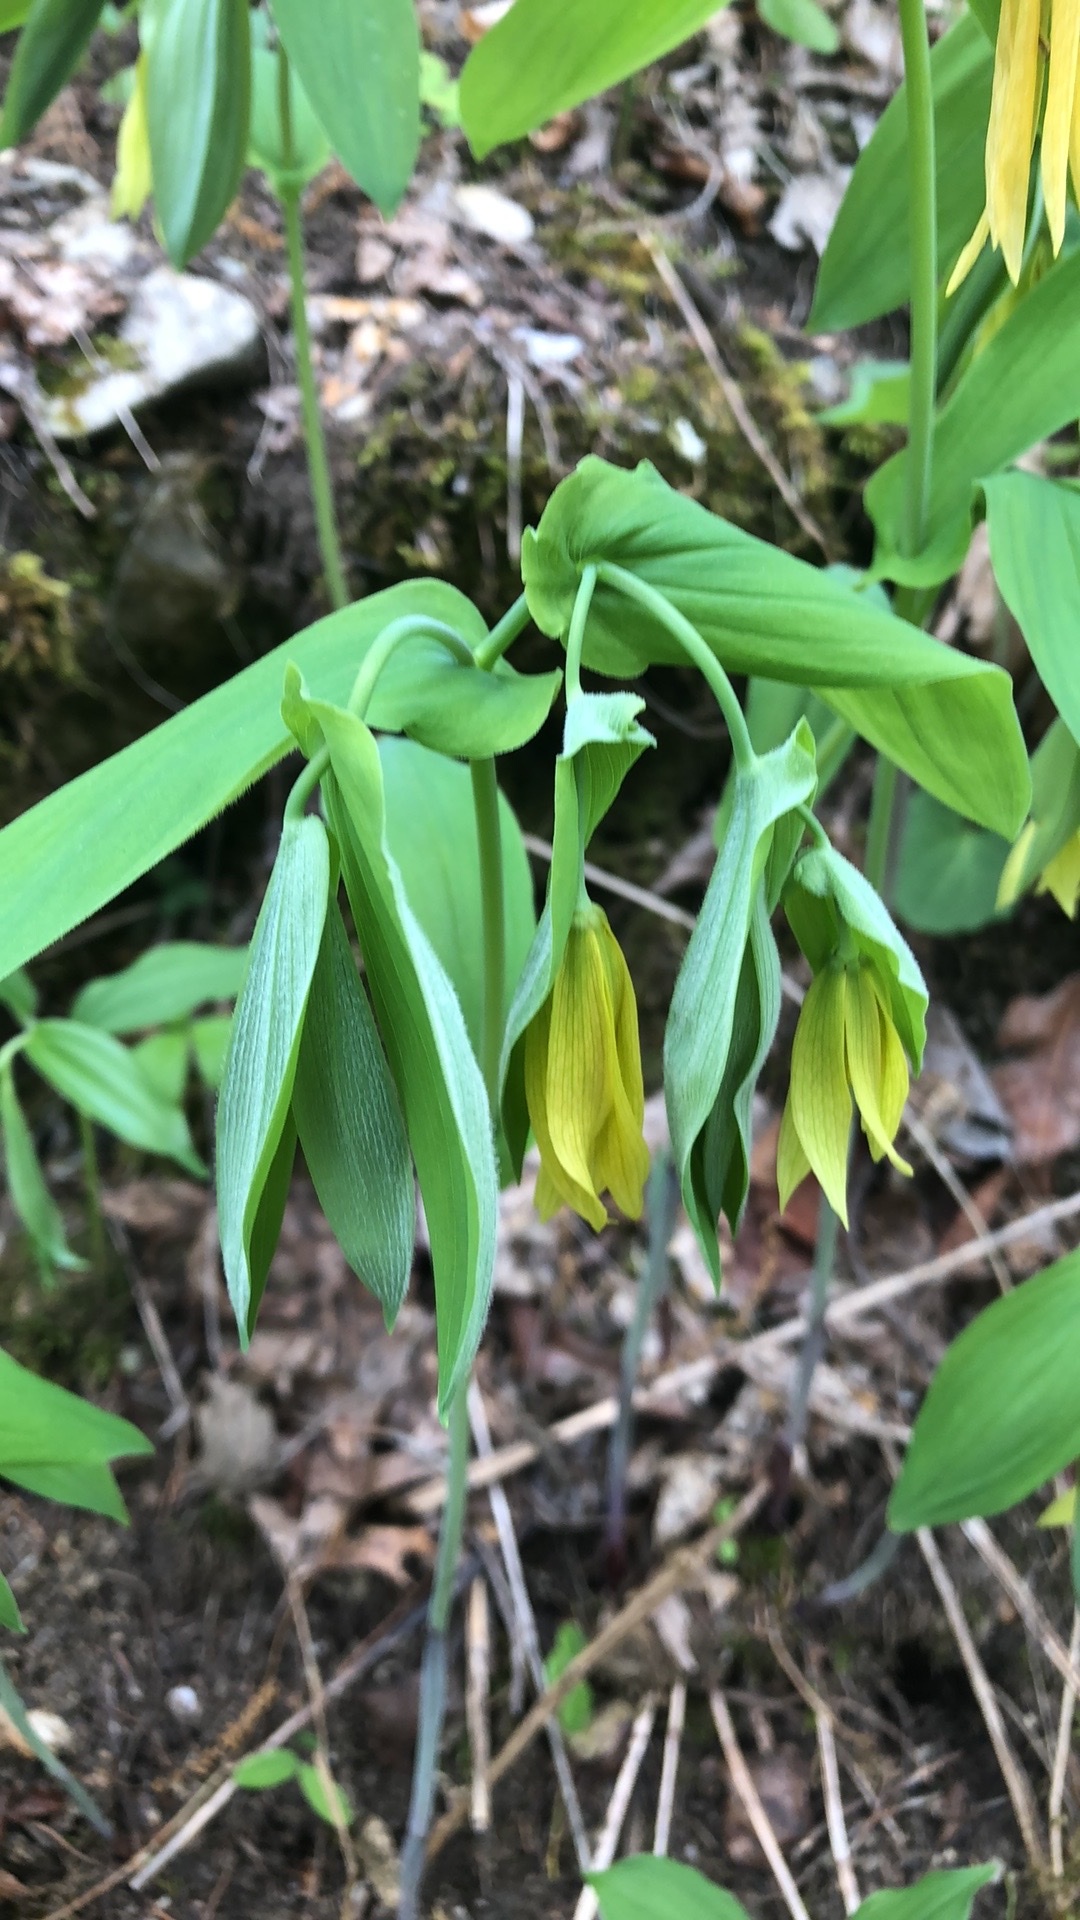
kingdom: Plantae
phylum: Tracheophyta
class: Liliopsida
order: Liliales
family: Colchicaceae
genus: Uvularia
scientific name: Uvularia grandiflora
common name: Bellwort
